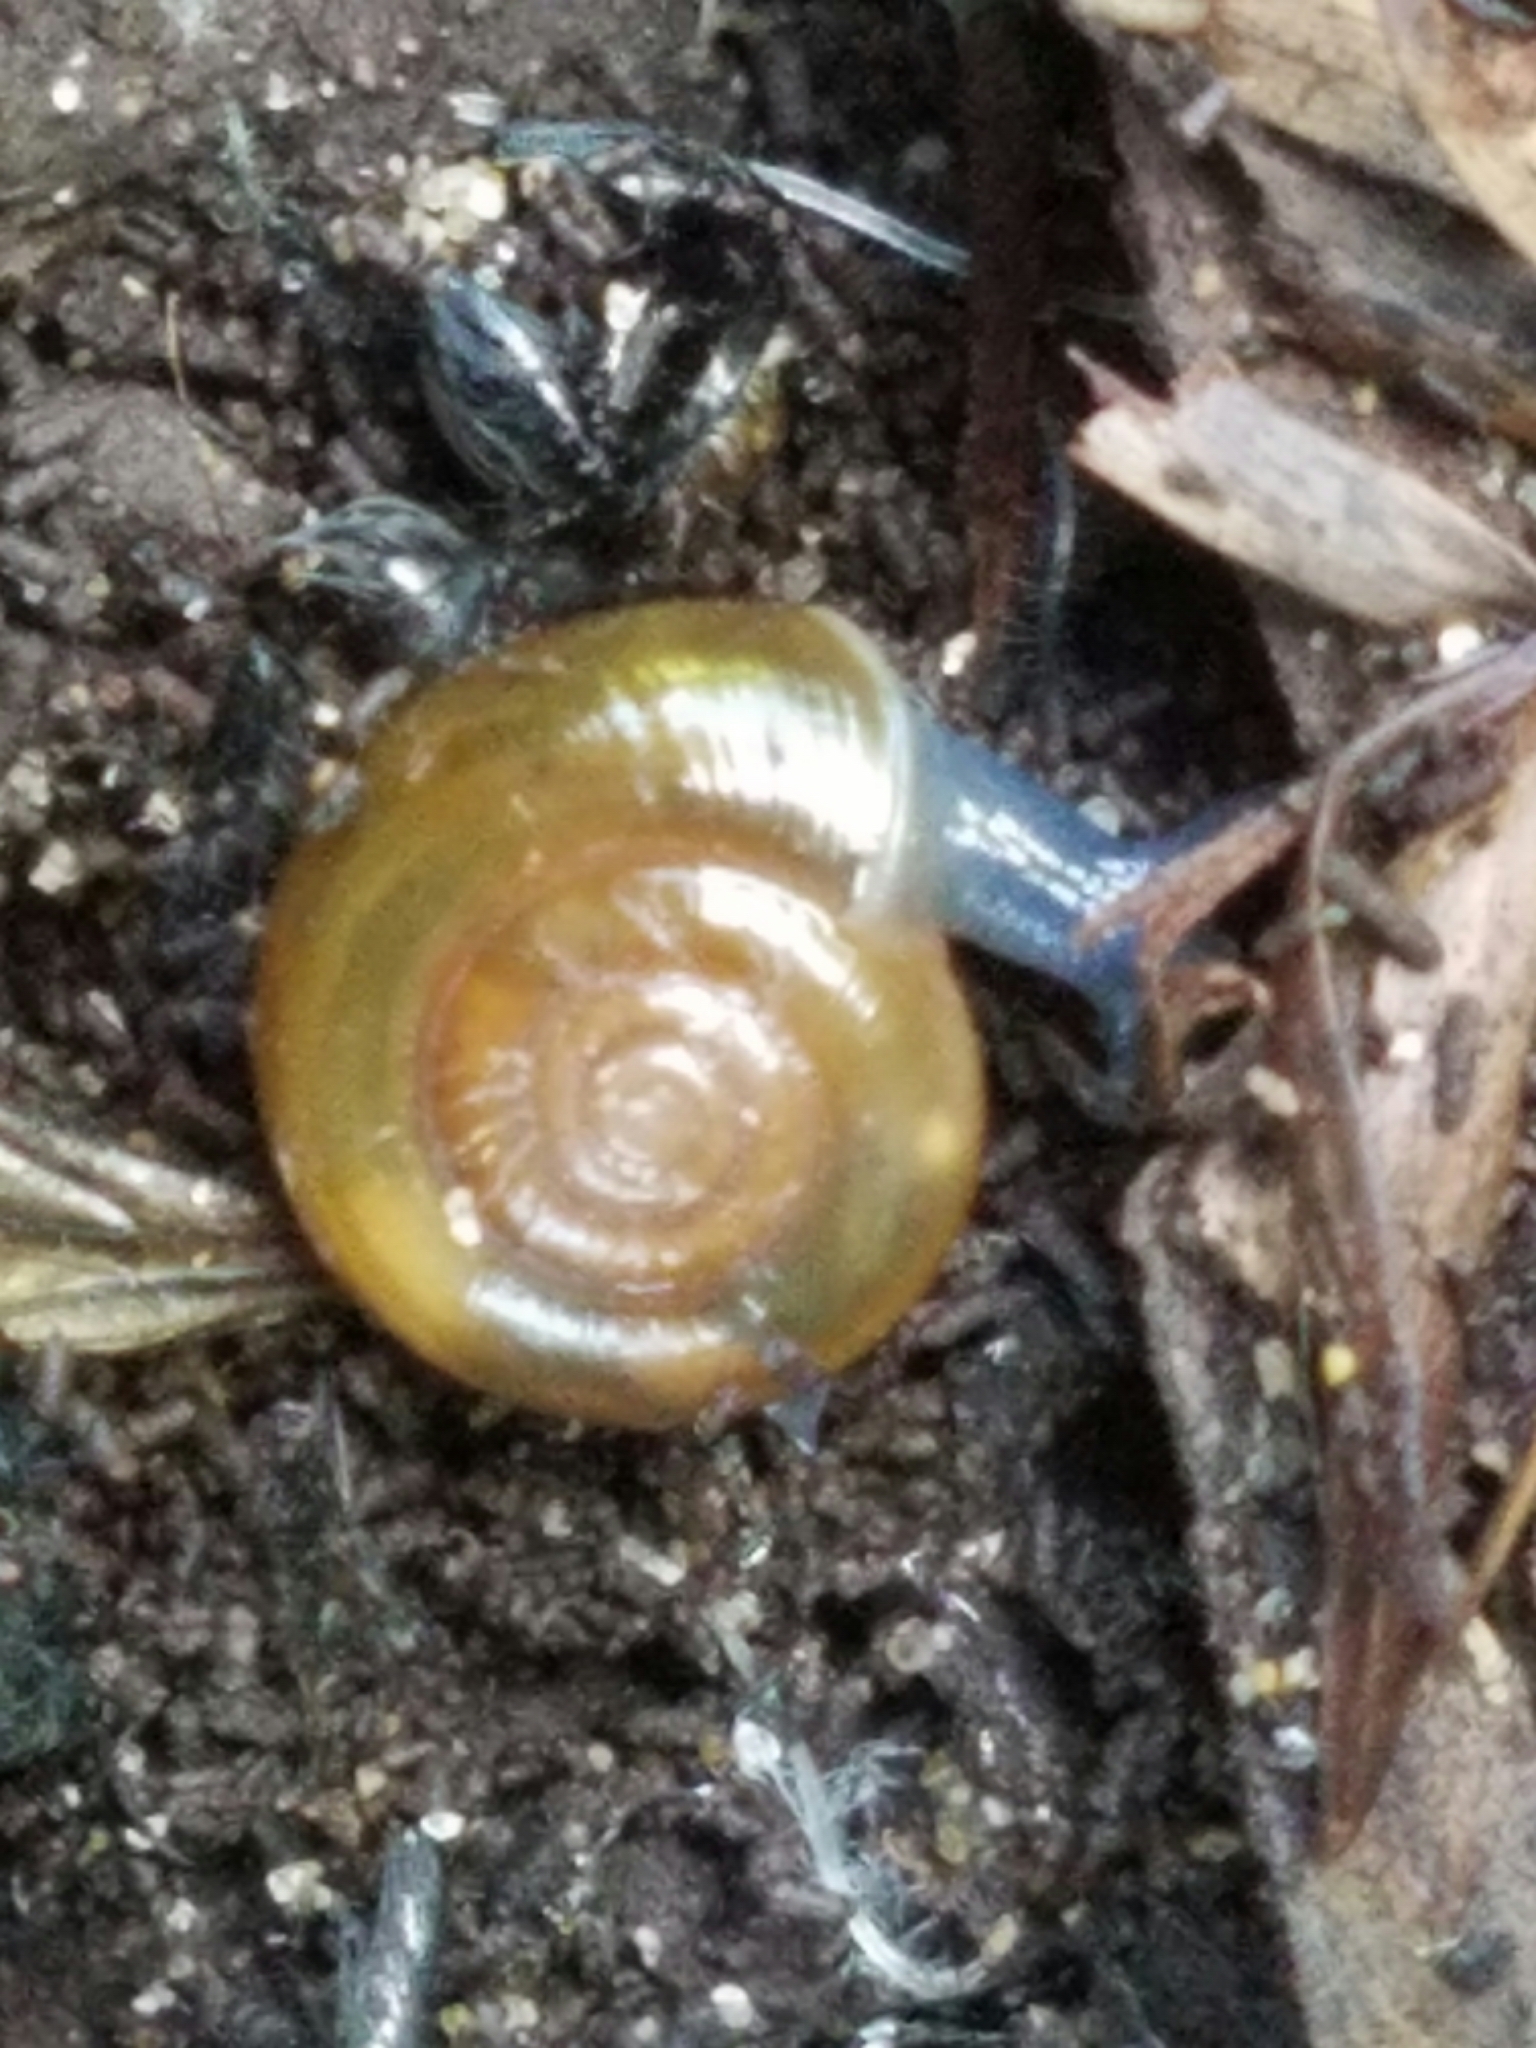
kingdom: Animalia
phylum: Mollusca
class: Gastropoda
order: Stylommatophora
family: Oxychilidae
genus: Oxychilus
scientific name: Oxychilus draparnaudi
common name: Draparnaud's glass snail
